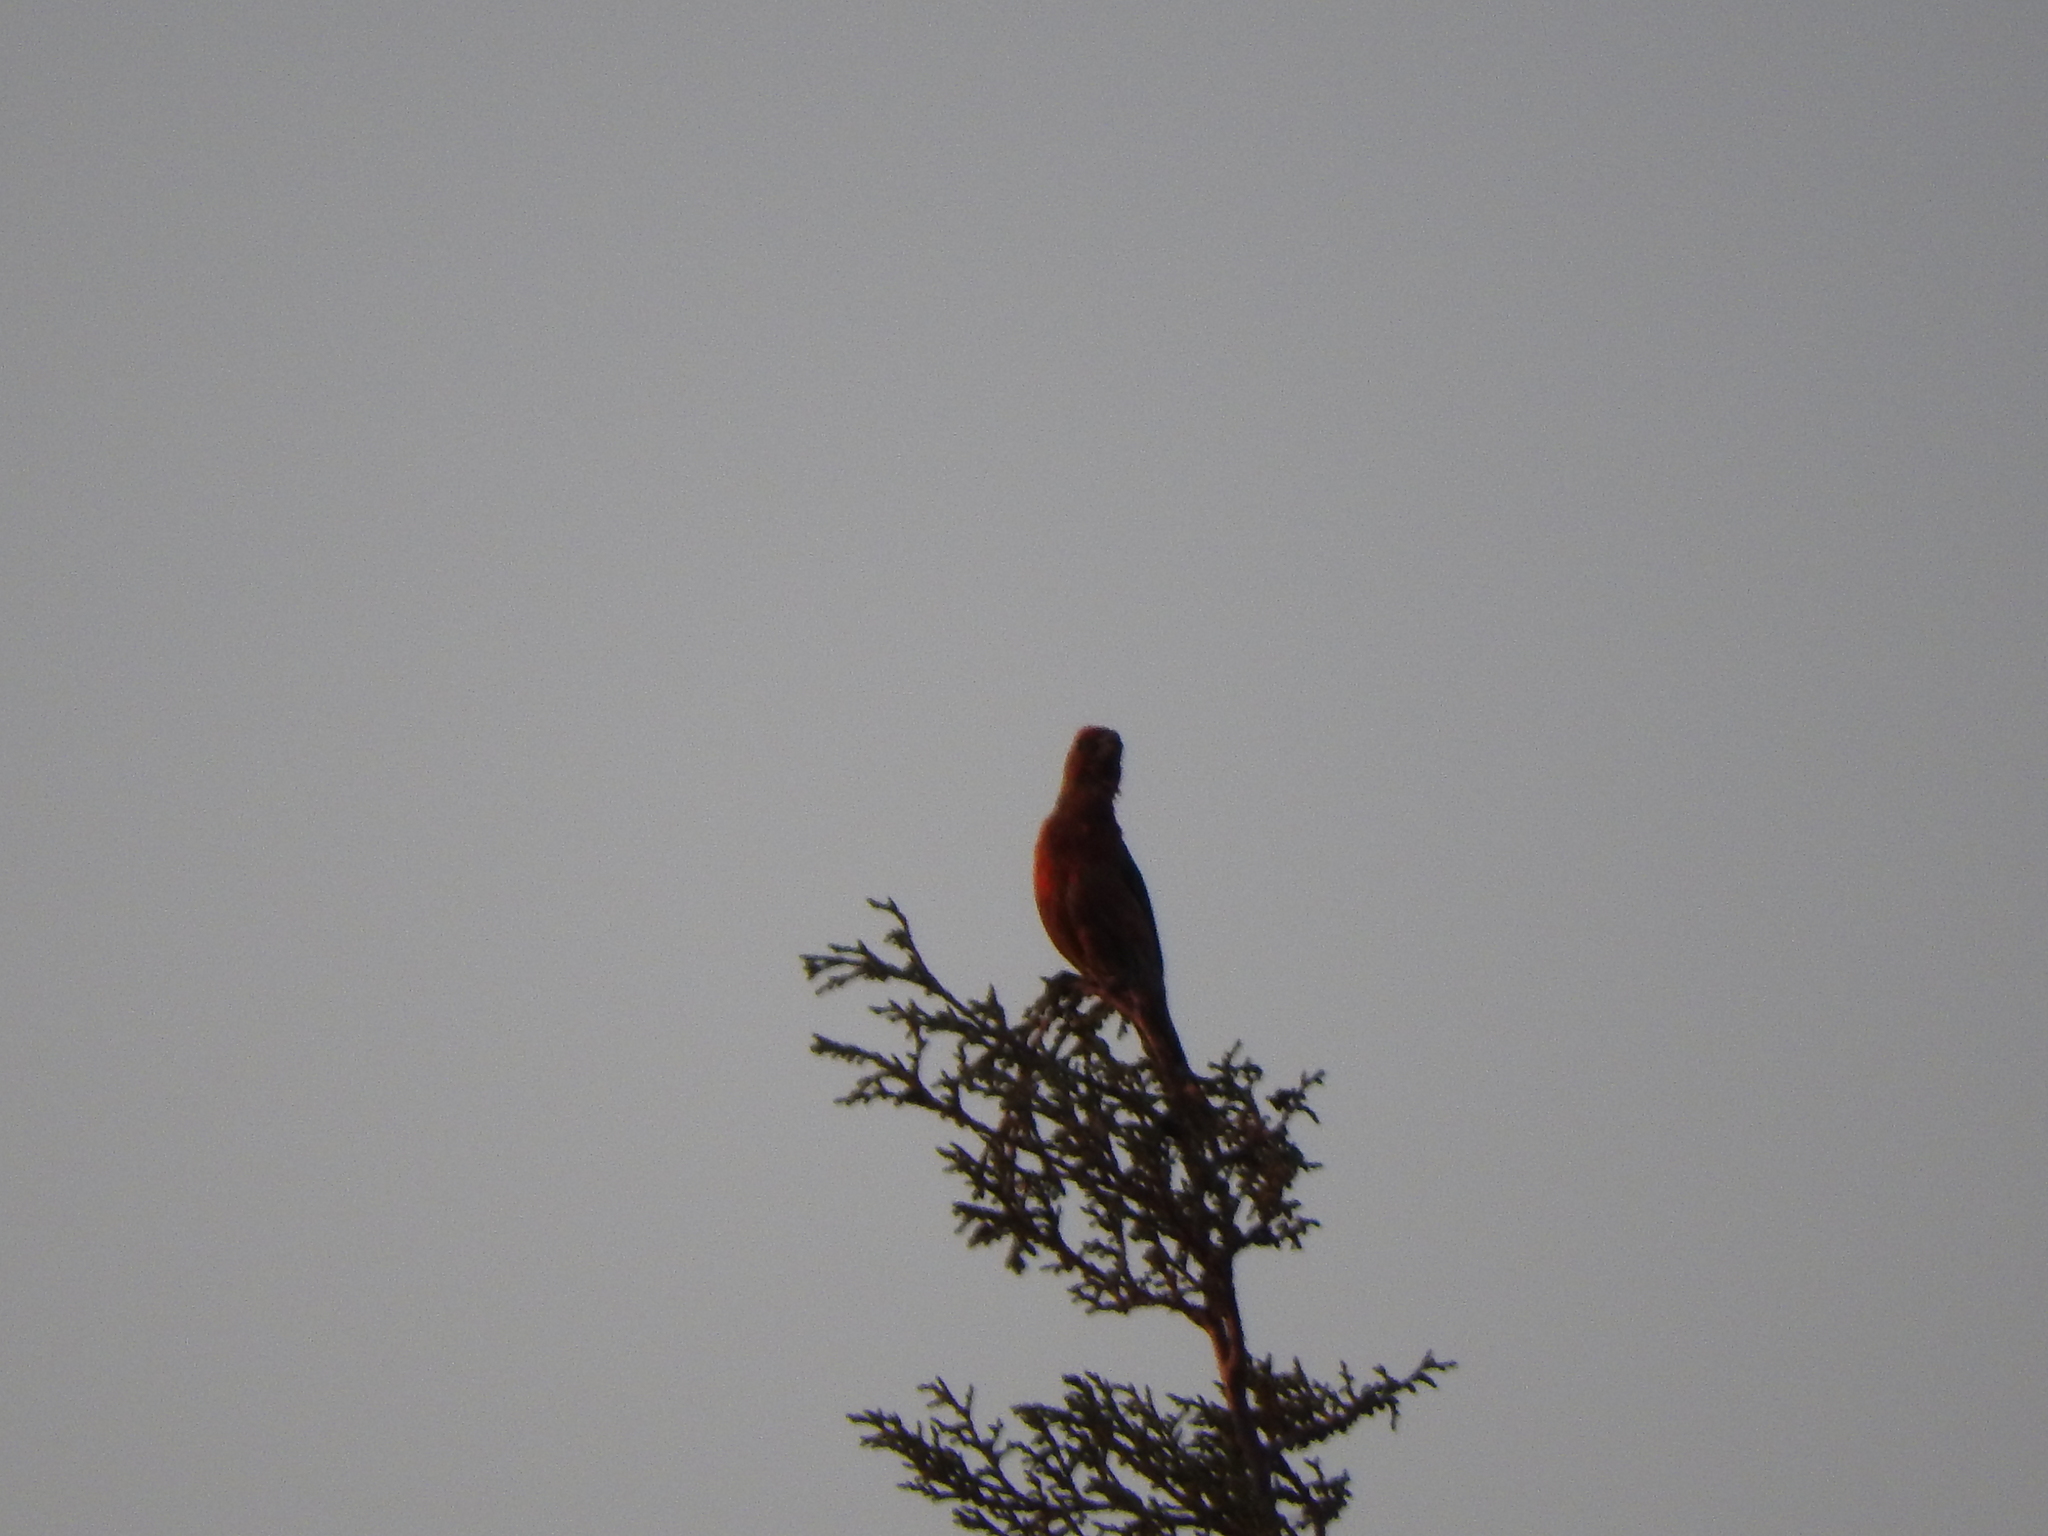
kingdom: Animalia
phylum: Chordata
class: Aves
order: Passeriformes
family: Fringillidae
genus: Haemorhous
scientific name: Haemorhous mexicanus
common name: House finch
